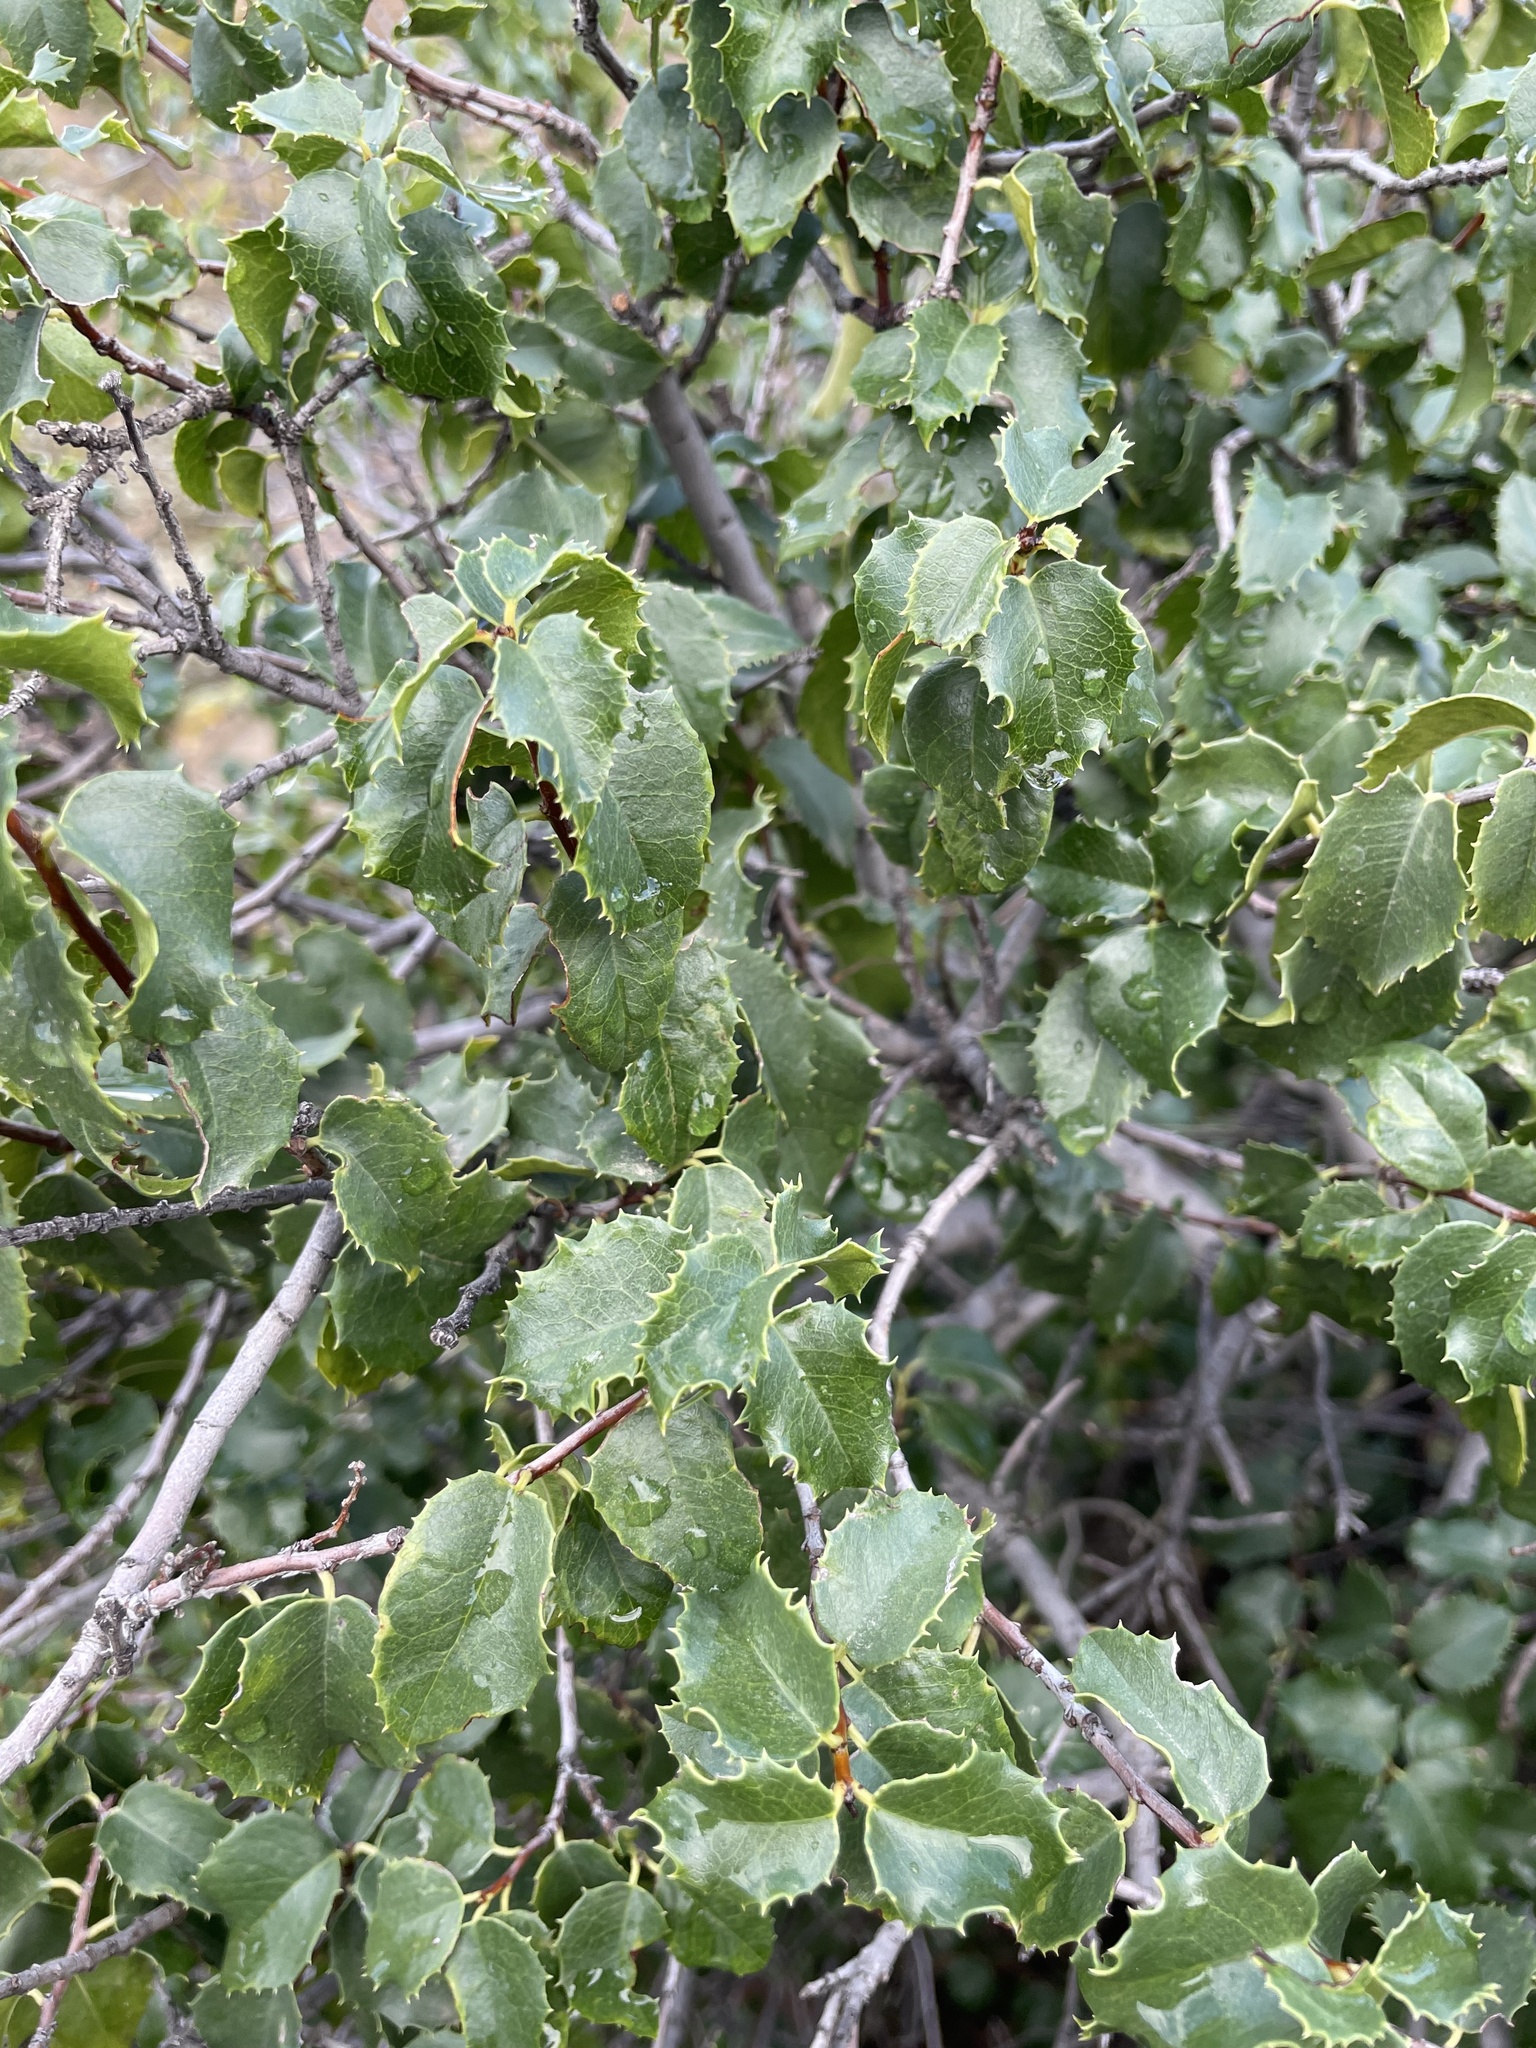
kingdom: Plantae
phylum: Tracheophyta
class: Magnoliopsida
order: Rosales
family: Rosaceae
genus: Prunus
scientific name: Prunus ilicifolia
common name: Hollyleaf cherry
